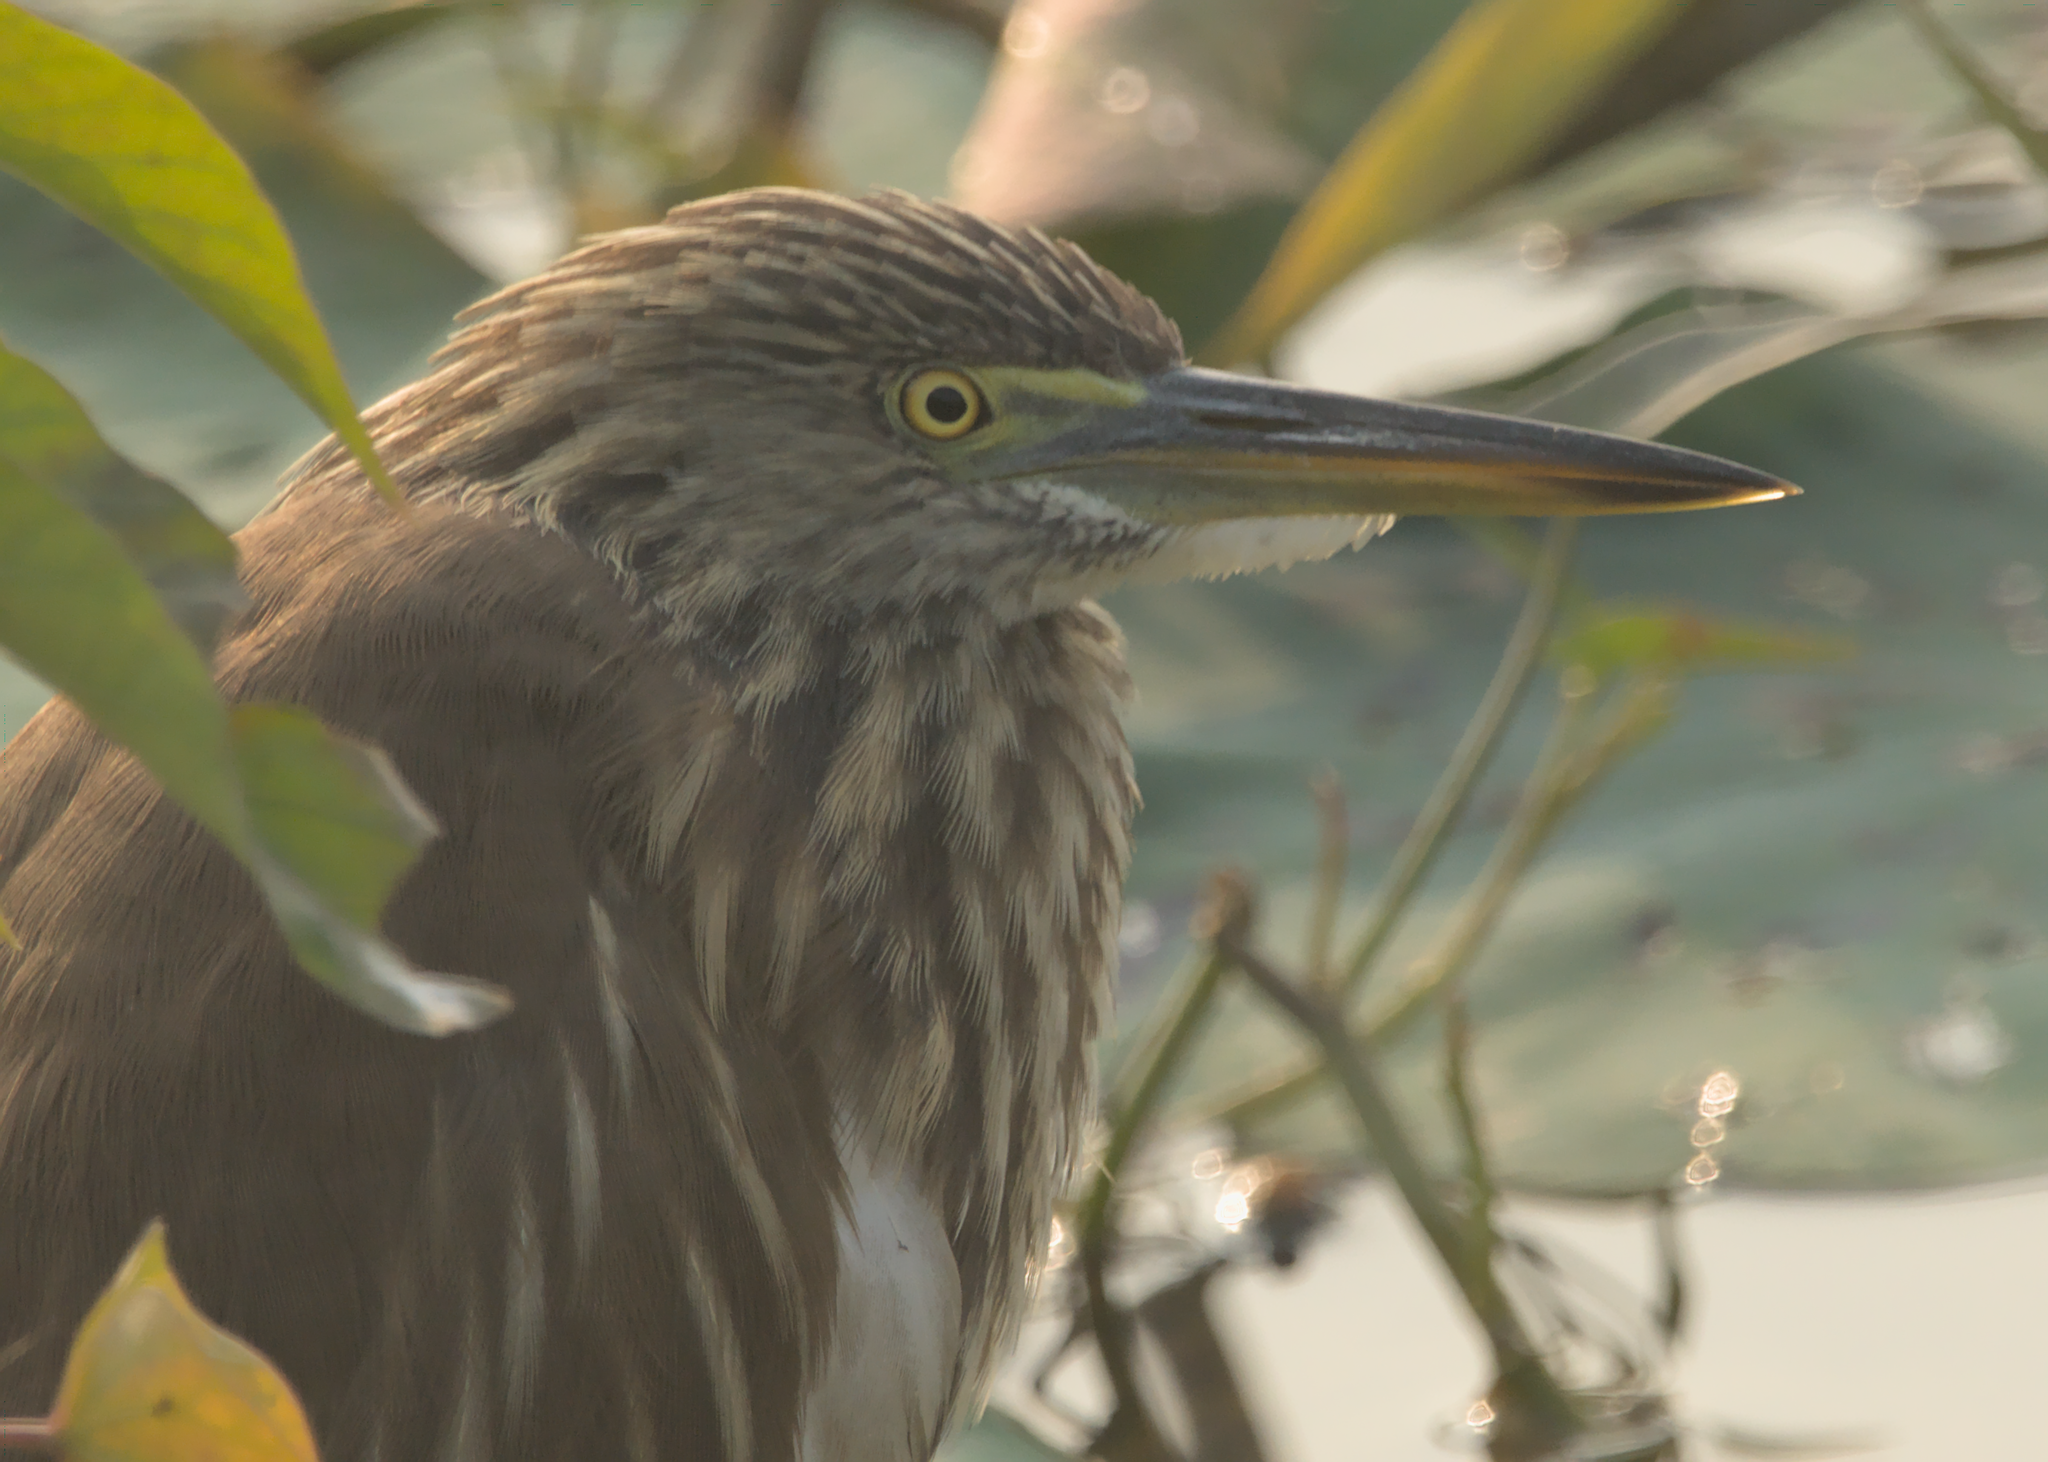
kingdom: Animalia
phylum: Chordata
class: Aves
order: Pelecaniformes
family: Ardeidae
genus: Ardeola
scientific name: Ardeola grayii
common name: Indian pond heron
